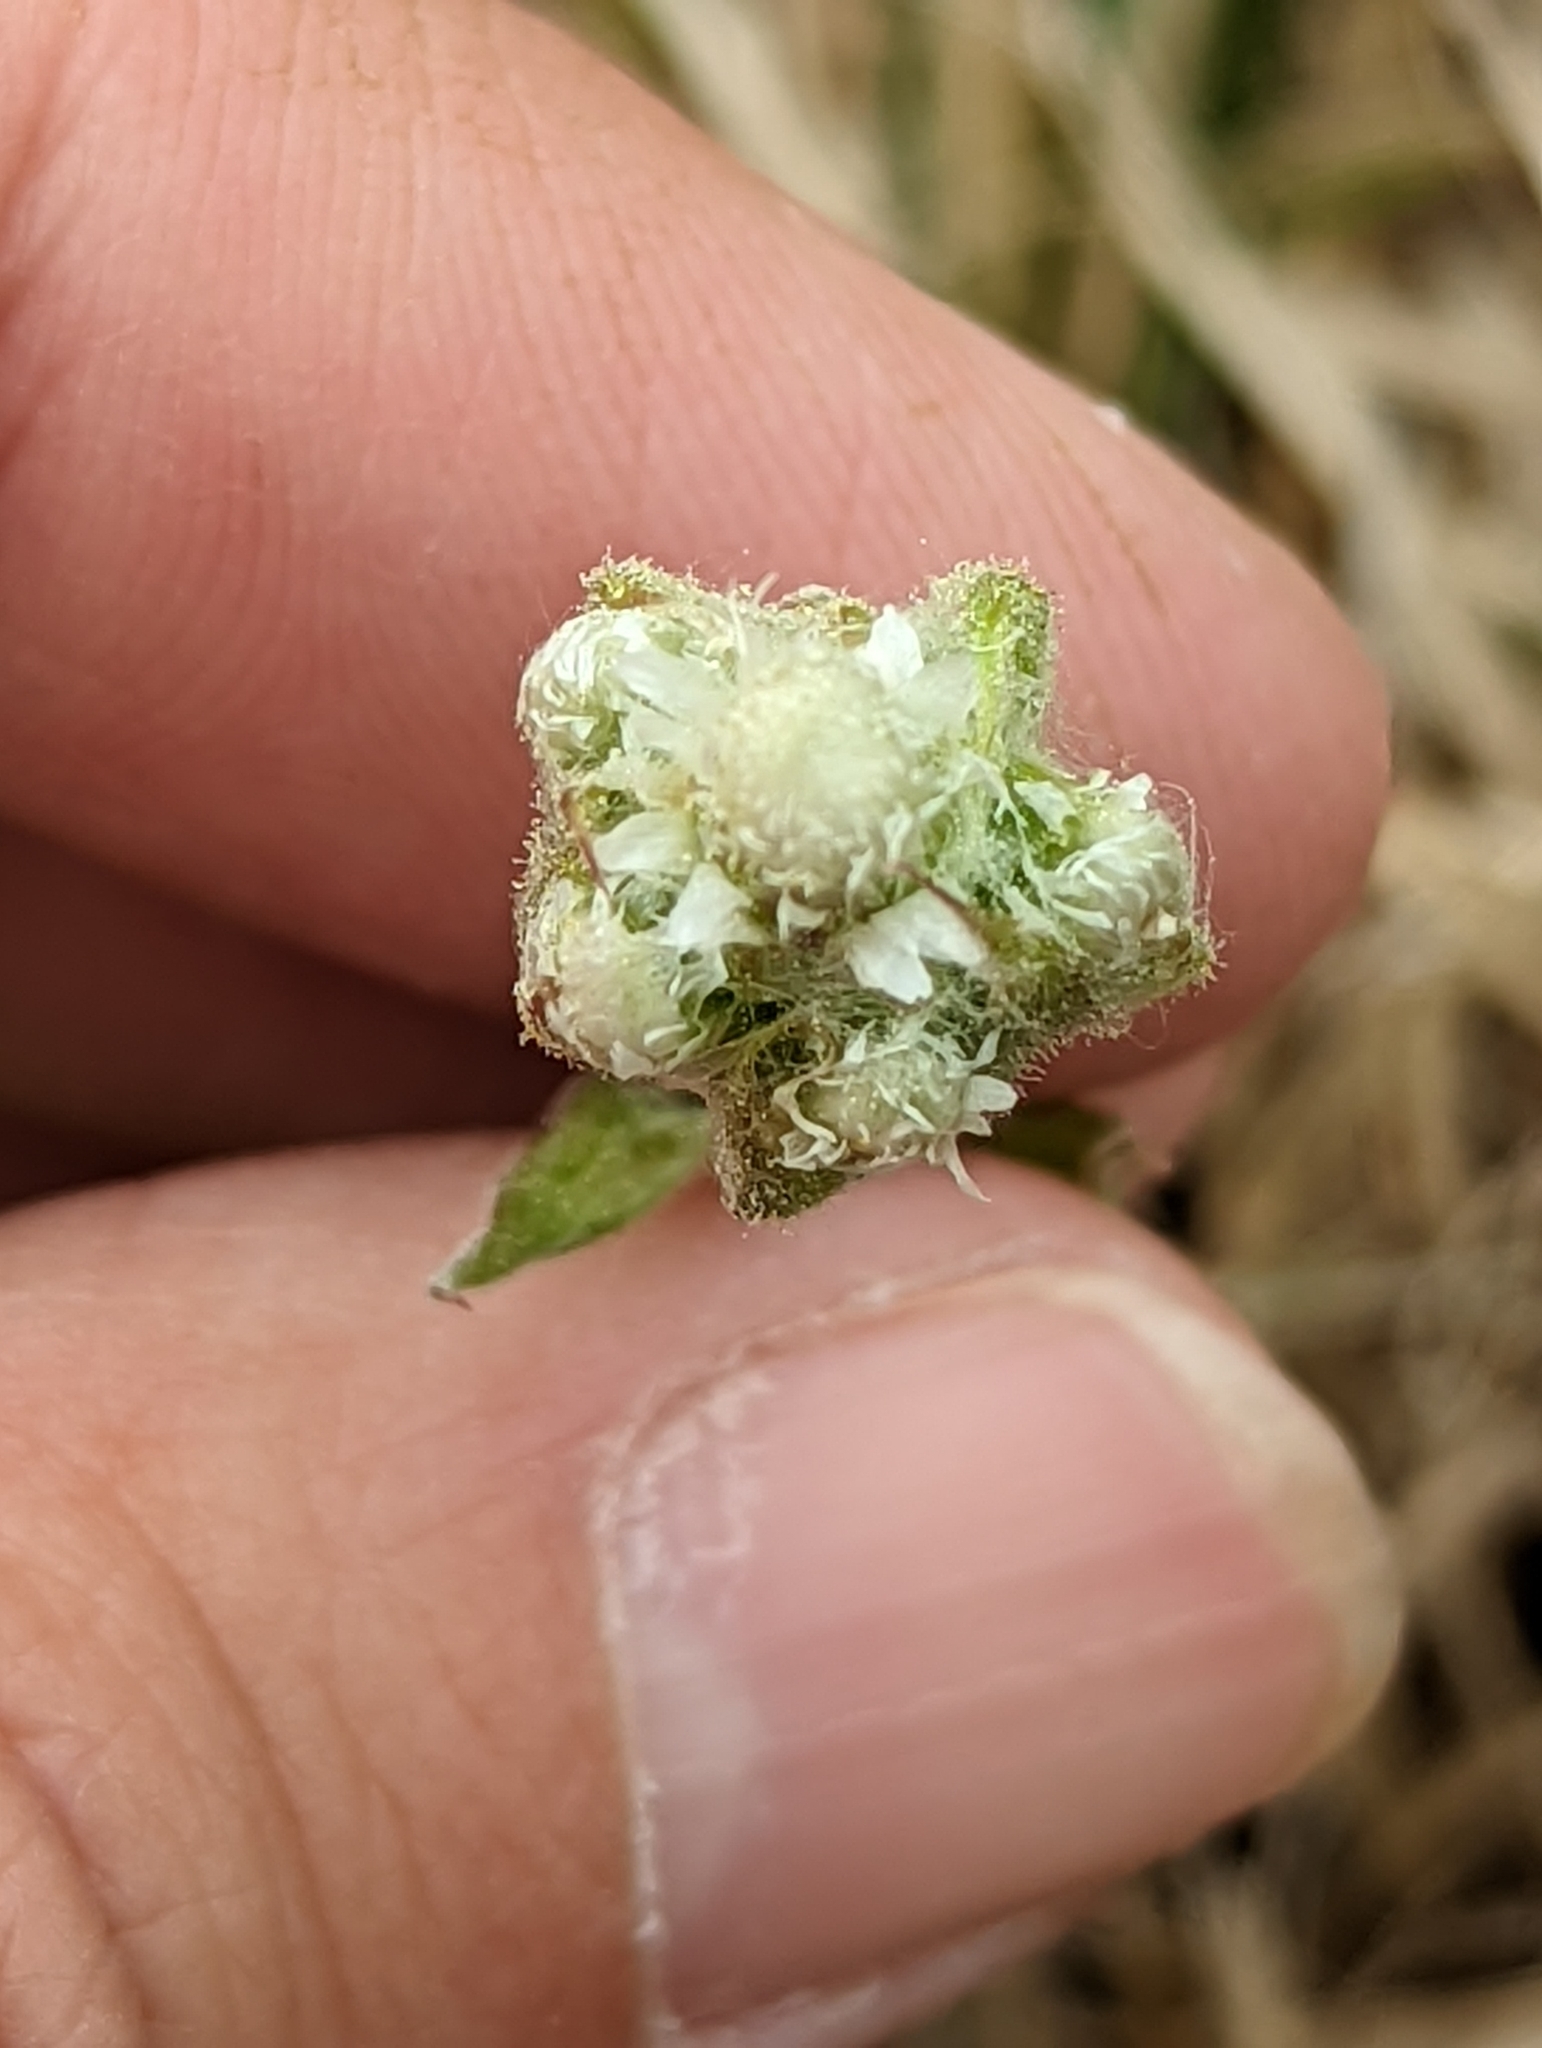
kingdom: Plantae
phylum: Tracheophyta
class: Magnoliopsida
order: Asterales
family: Asteraceae
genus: Antennaria
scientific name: Antennaria parlinii
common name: Parlin's pussytoes
